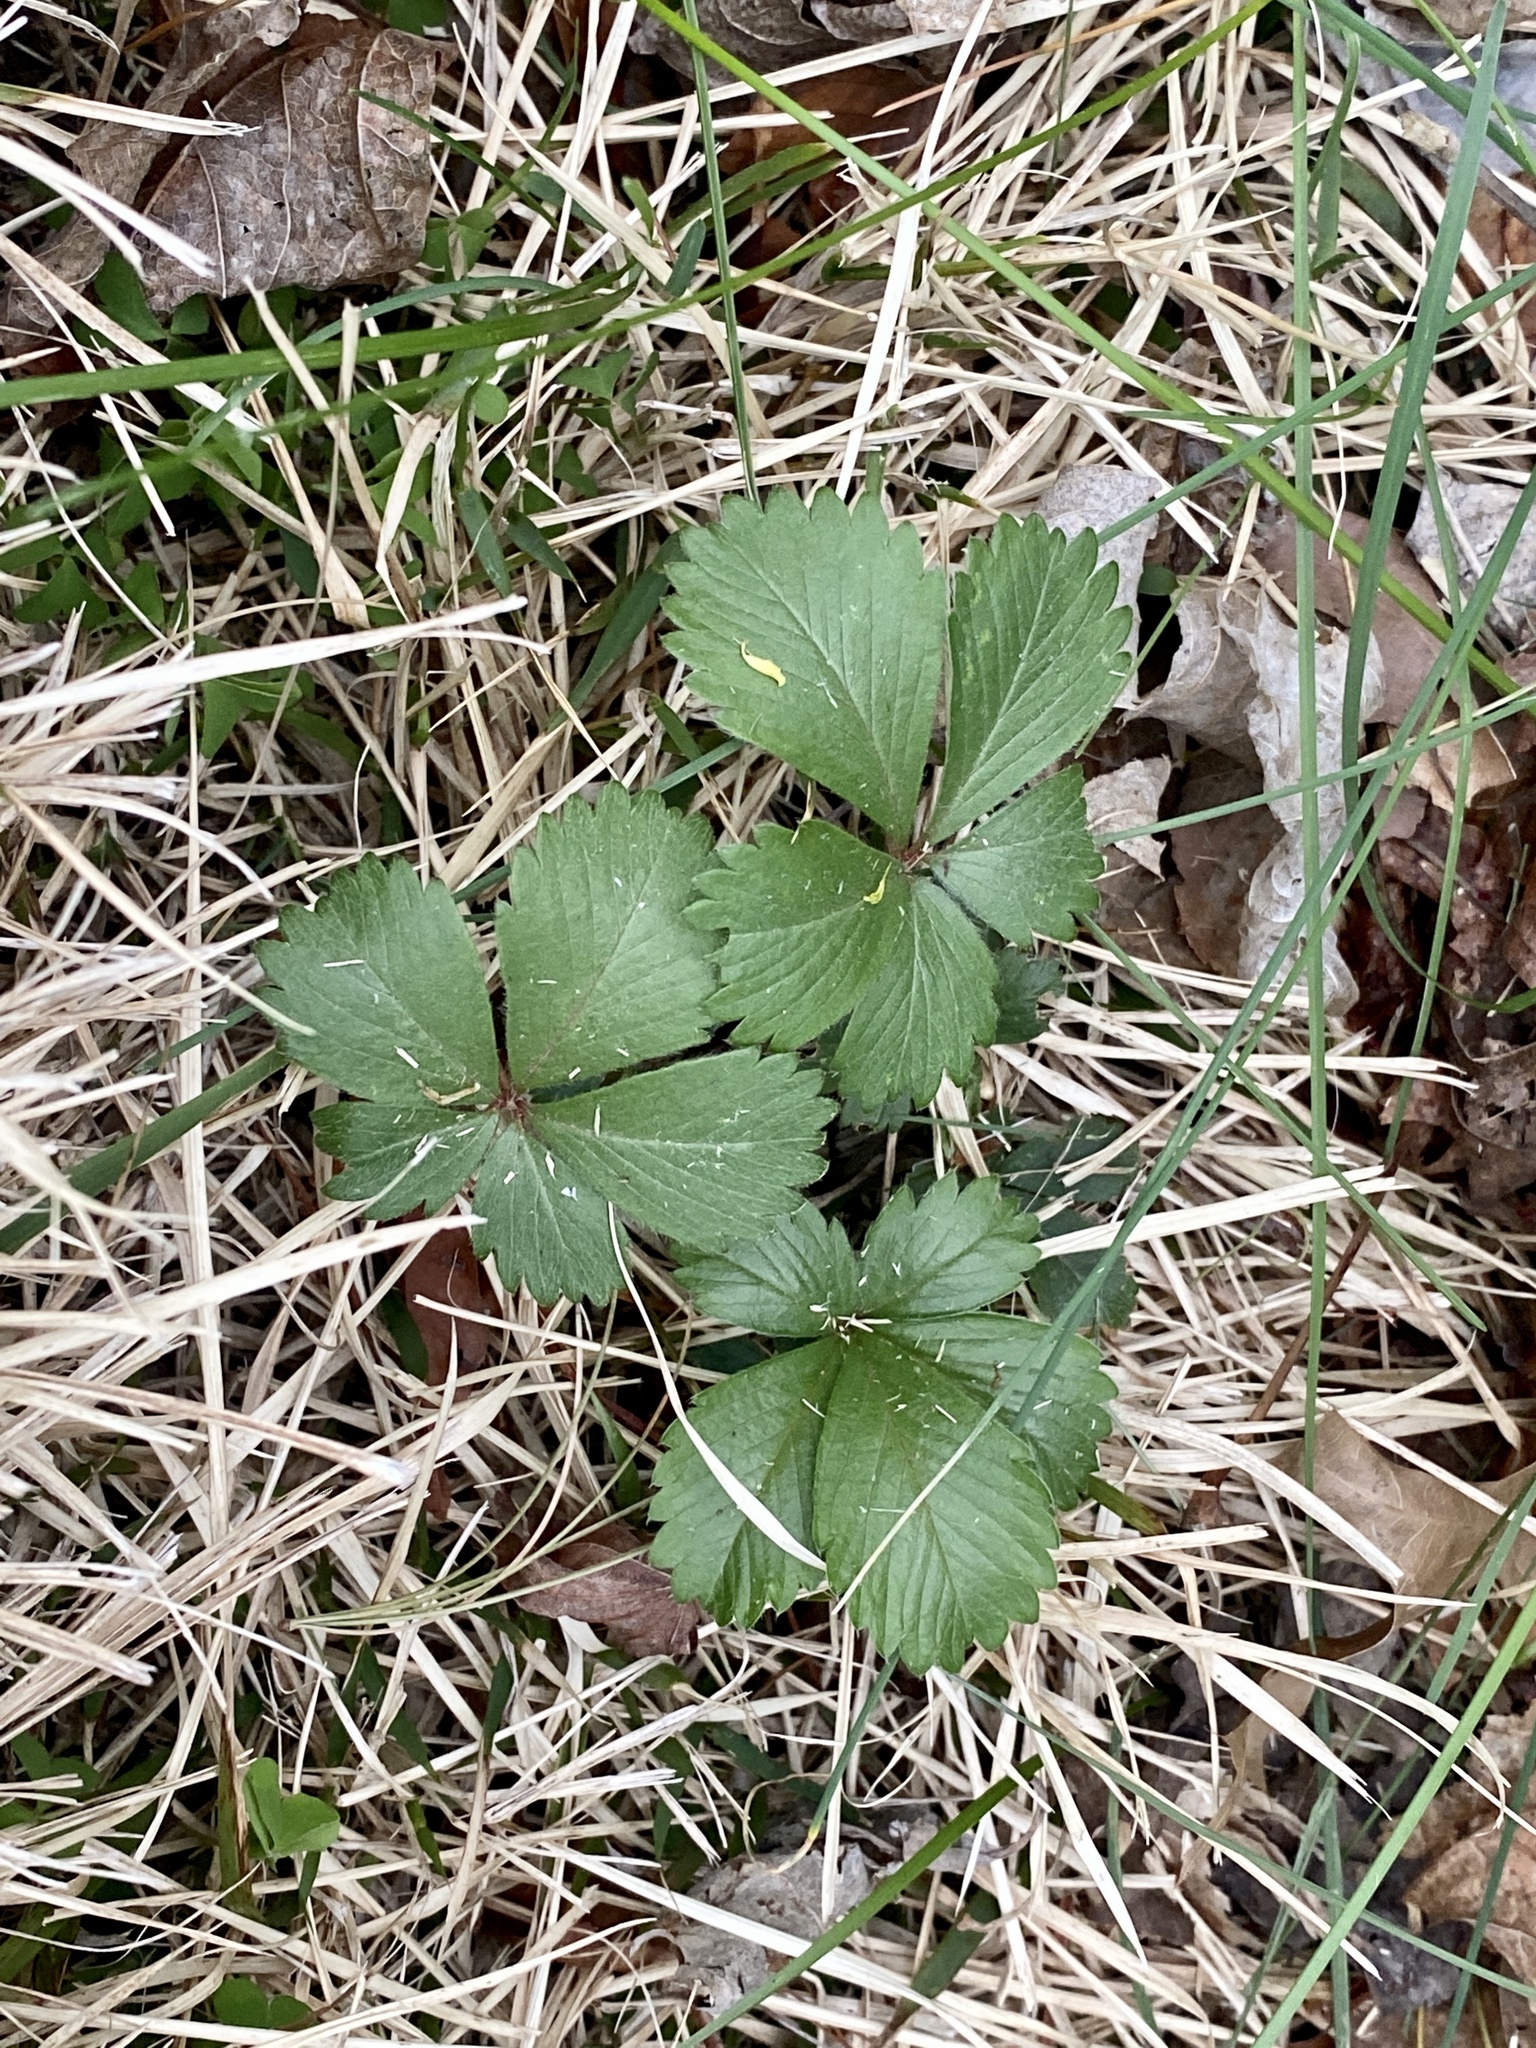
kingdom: Plantae
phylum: Tracheophyta
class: Magnoliopsida
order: Rosales
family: Rosaceae
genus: Potentilla
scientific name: Potentilla canadensis
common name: Canada cinquefoil
